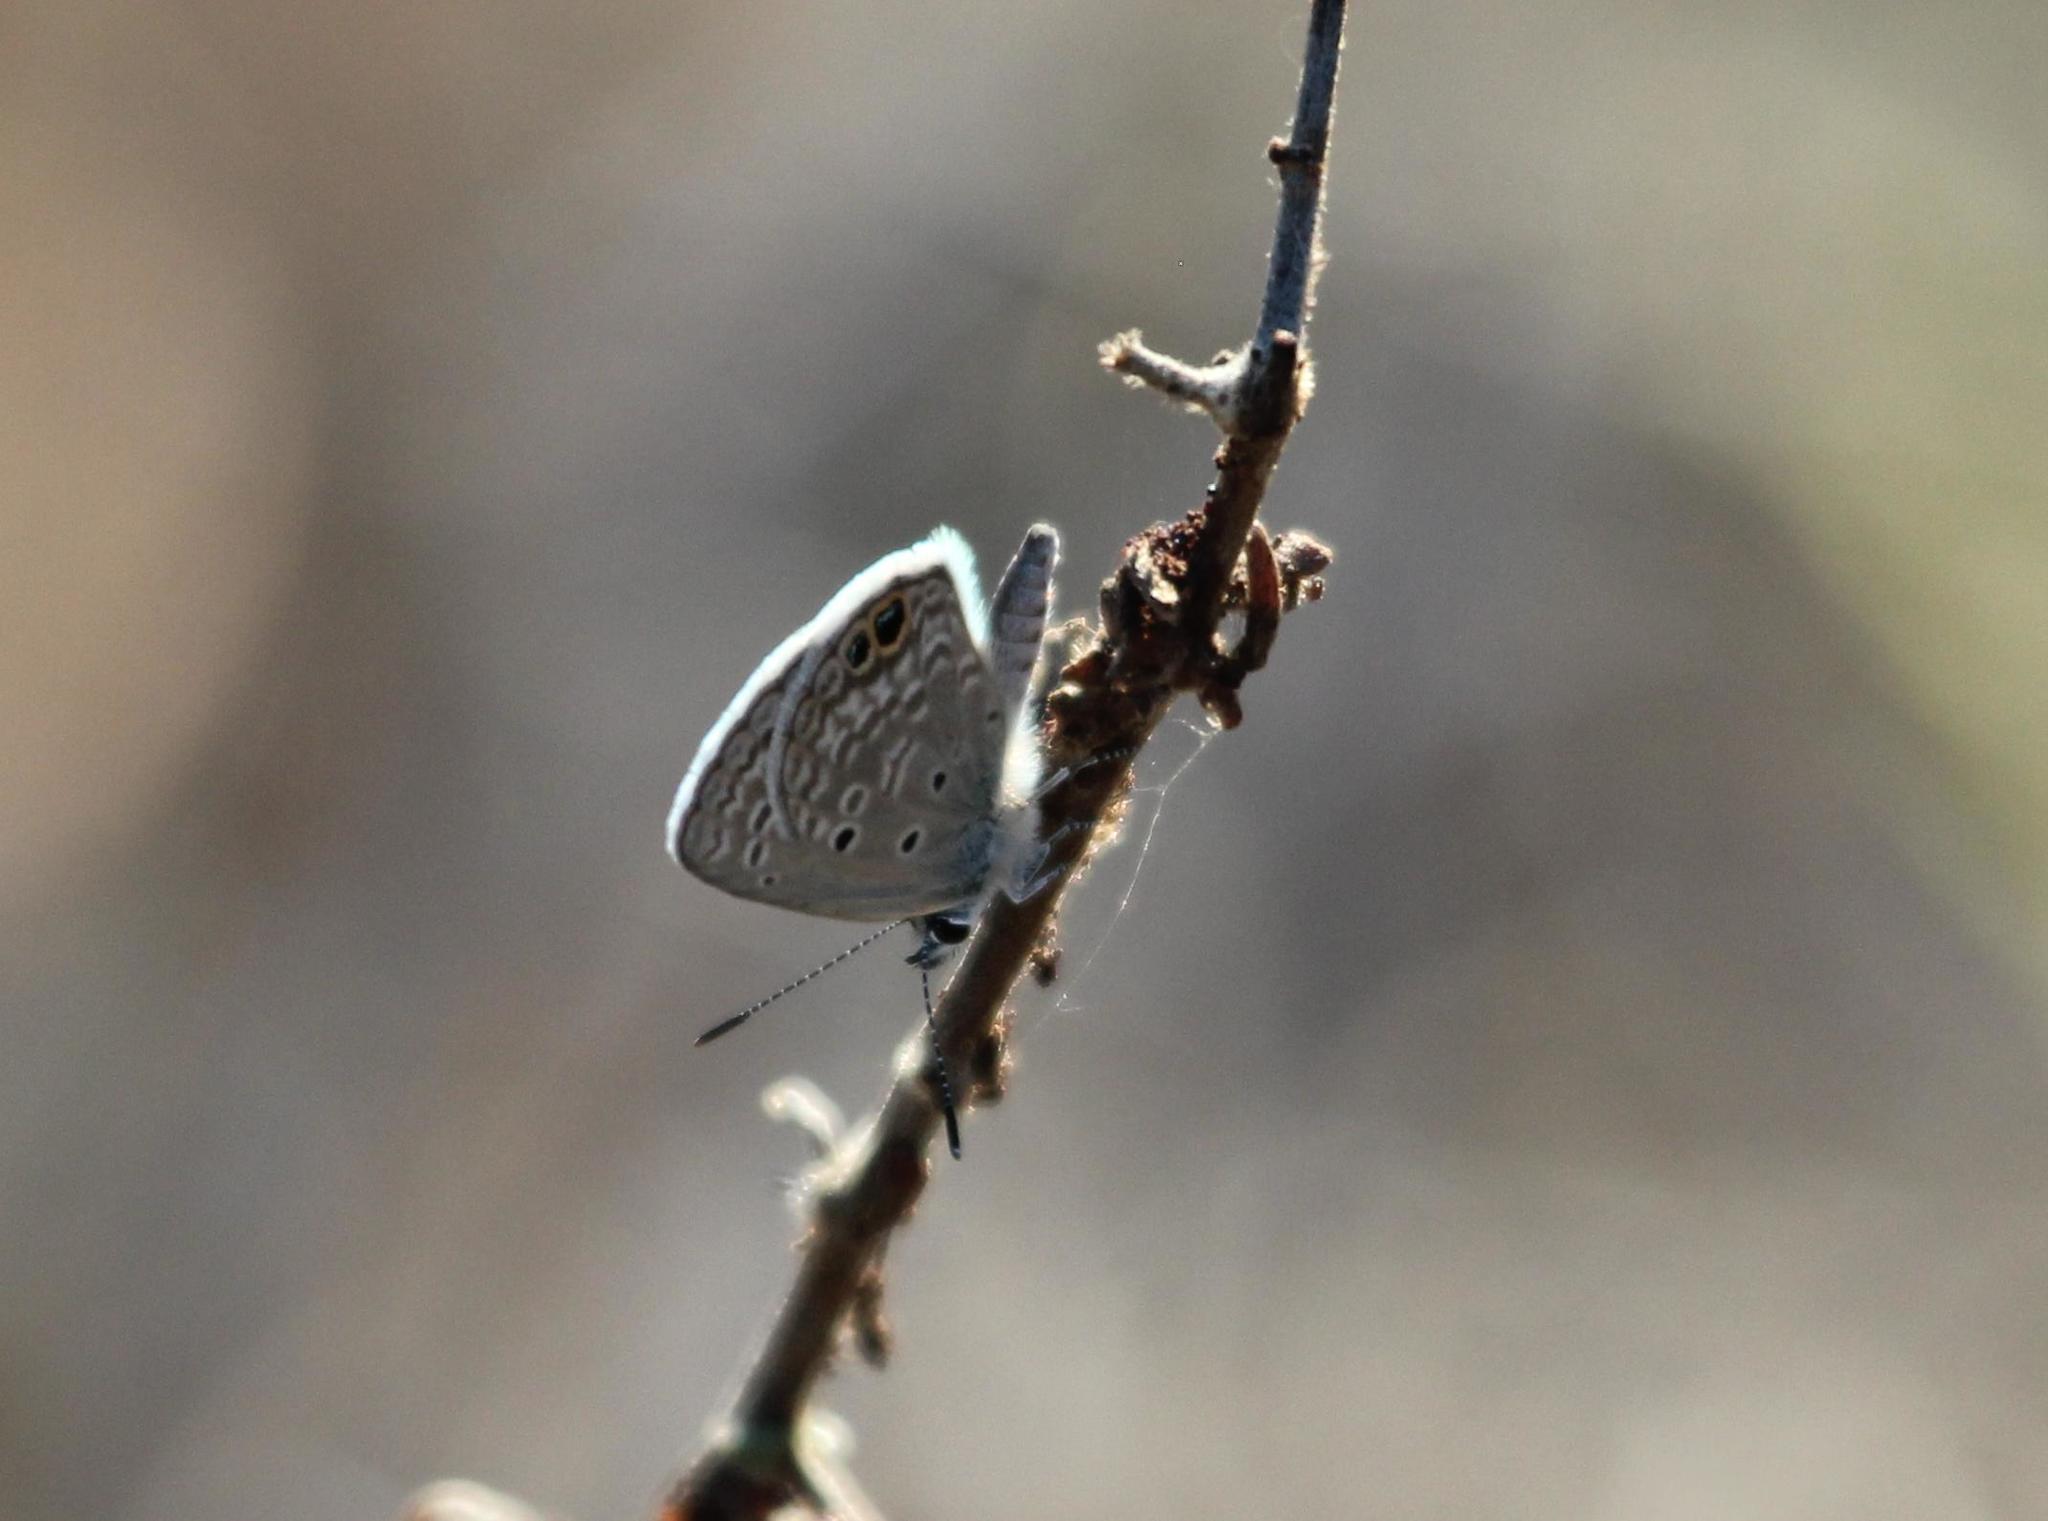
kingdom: Animalia
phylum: Arthropoda
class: Insecta
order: Lepidoptera
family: Lycaenidae
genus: Hemiargus
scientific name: Hemiargus ceraunus
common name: Ceraunus blue
